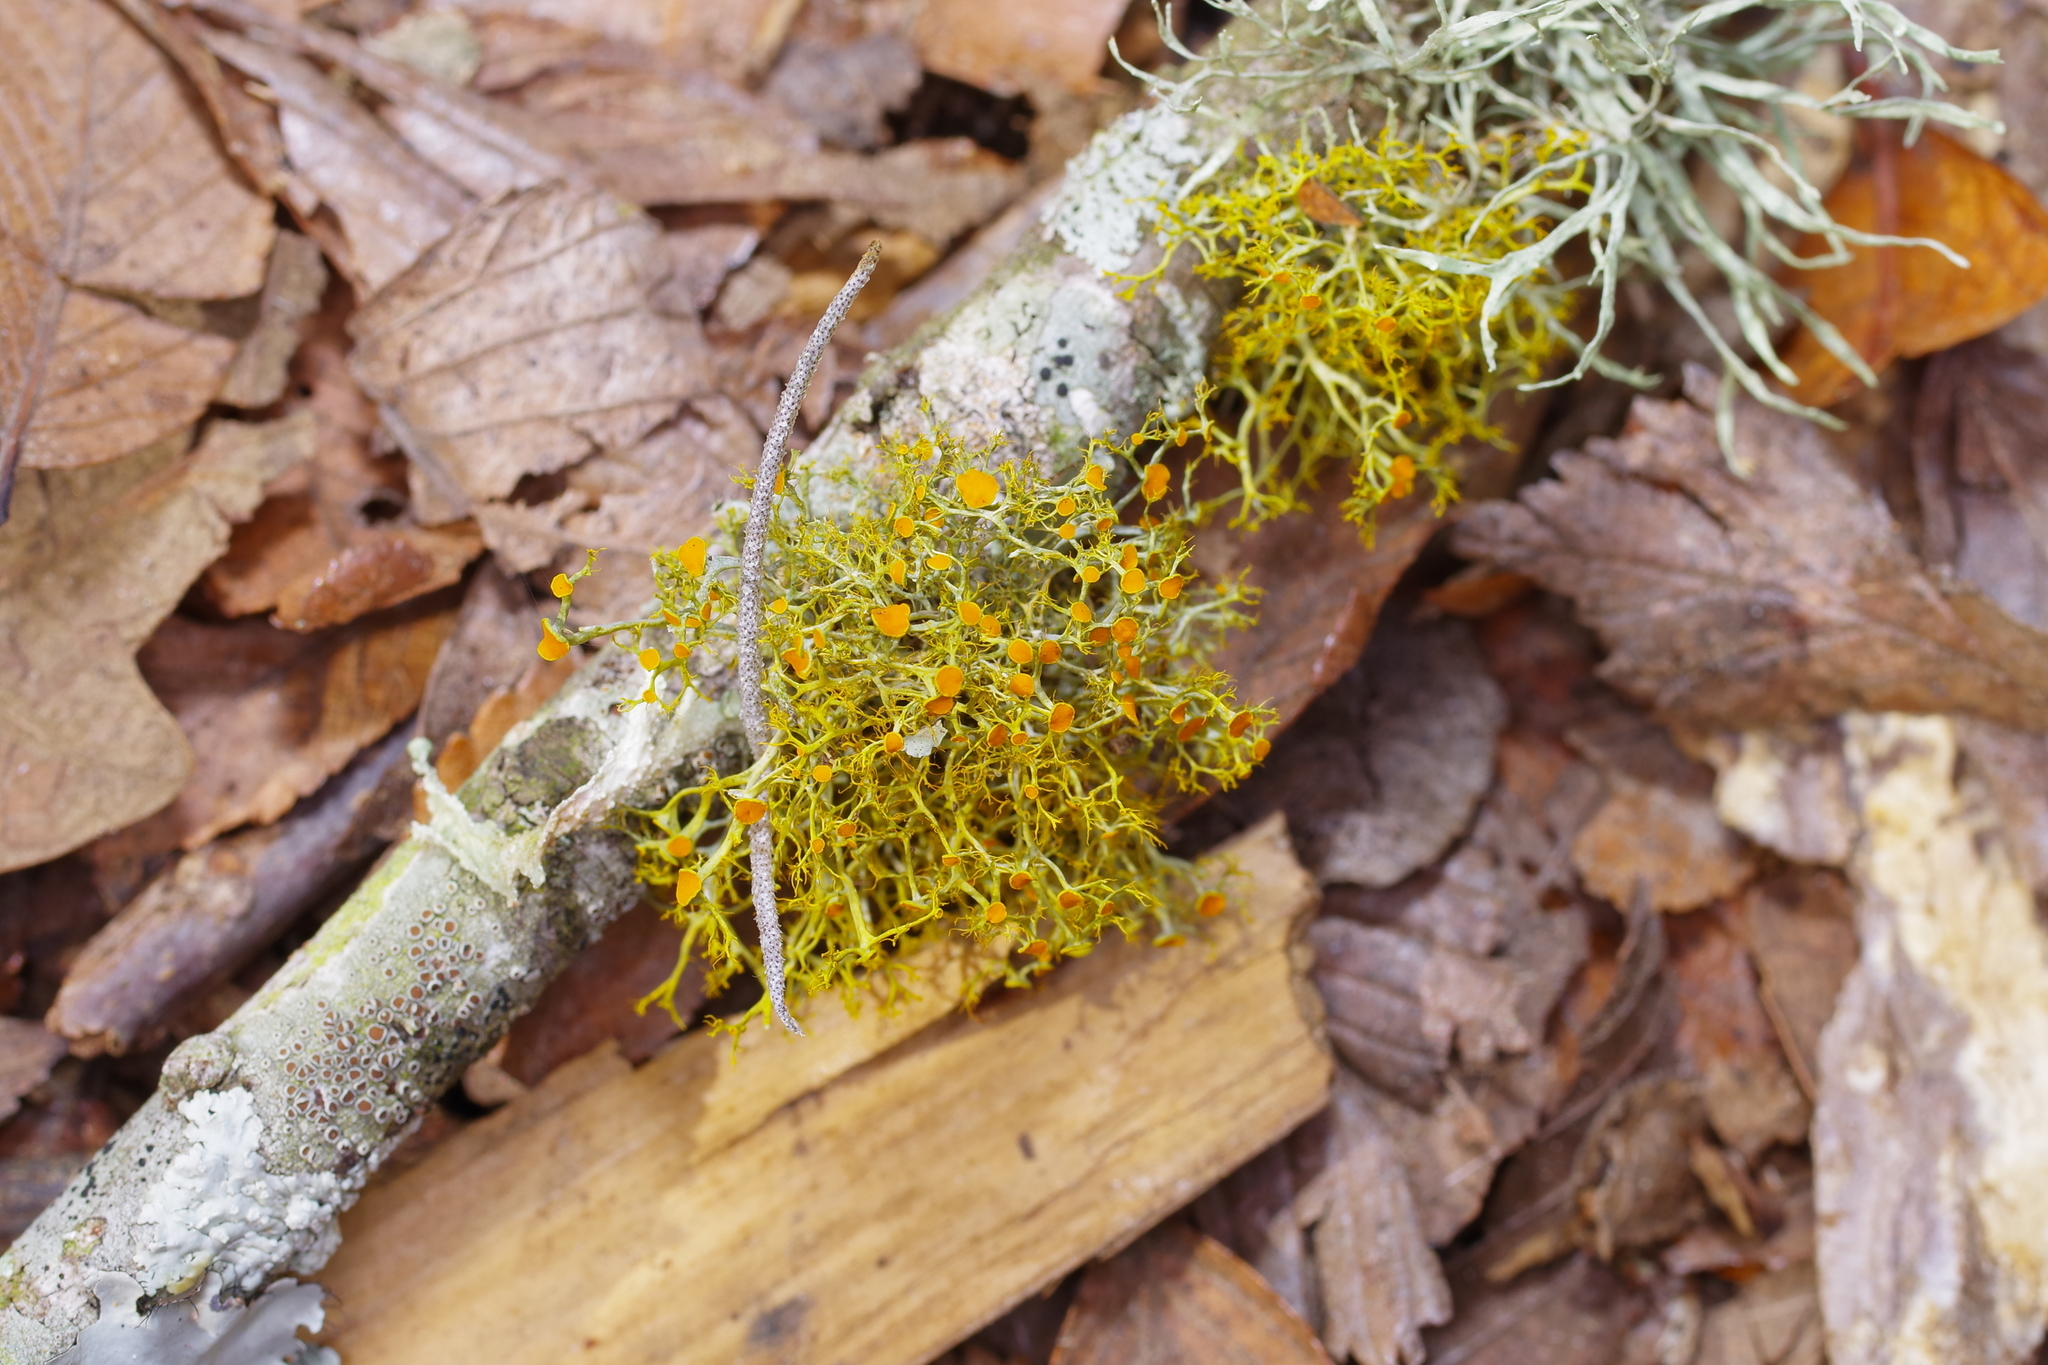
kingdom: Fungi
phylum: Ascomycota
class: Lecanoromycetes
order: Teloschistales
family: Teloschistaceae
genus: Teloschistes
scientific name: Teloschistes exilis
